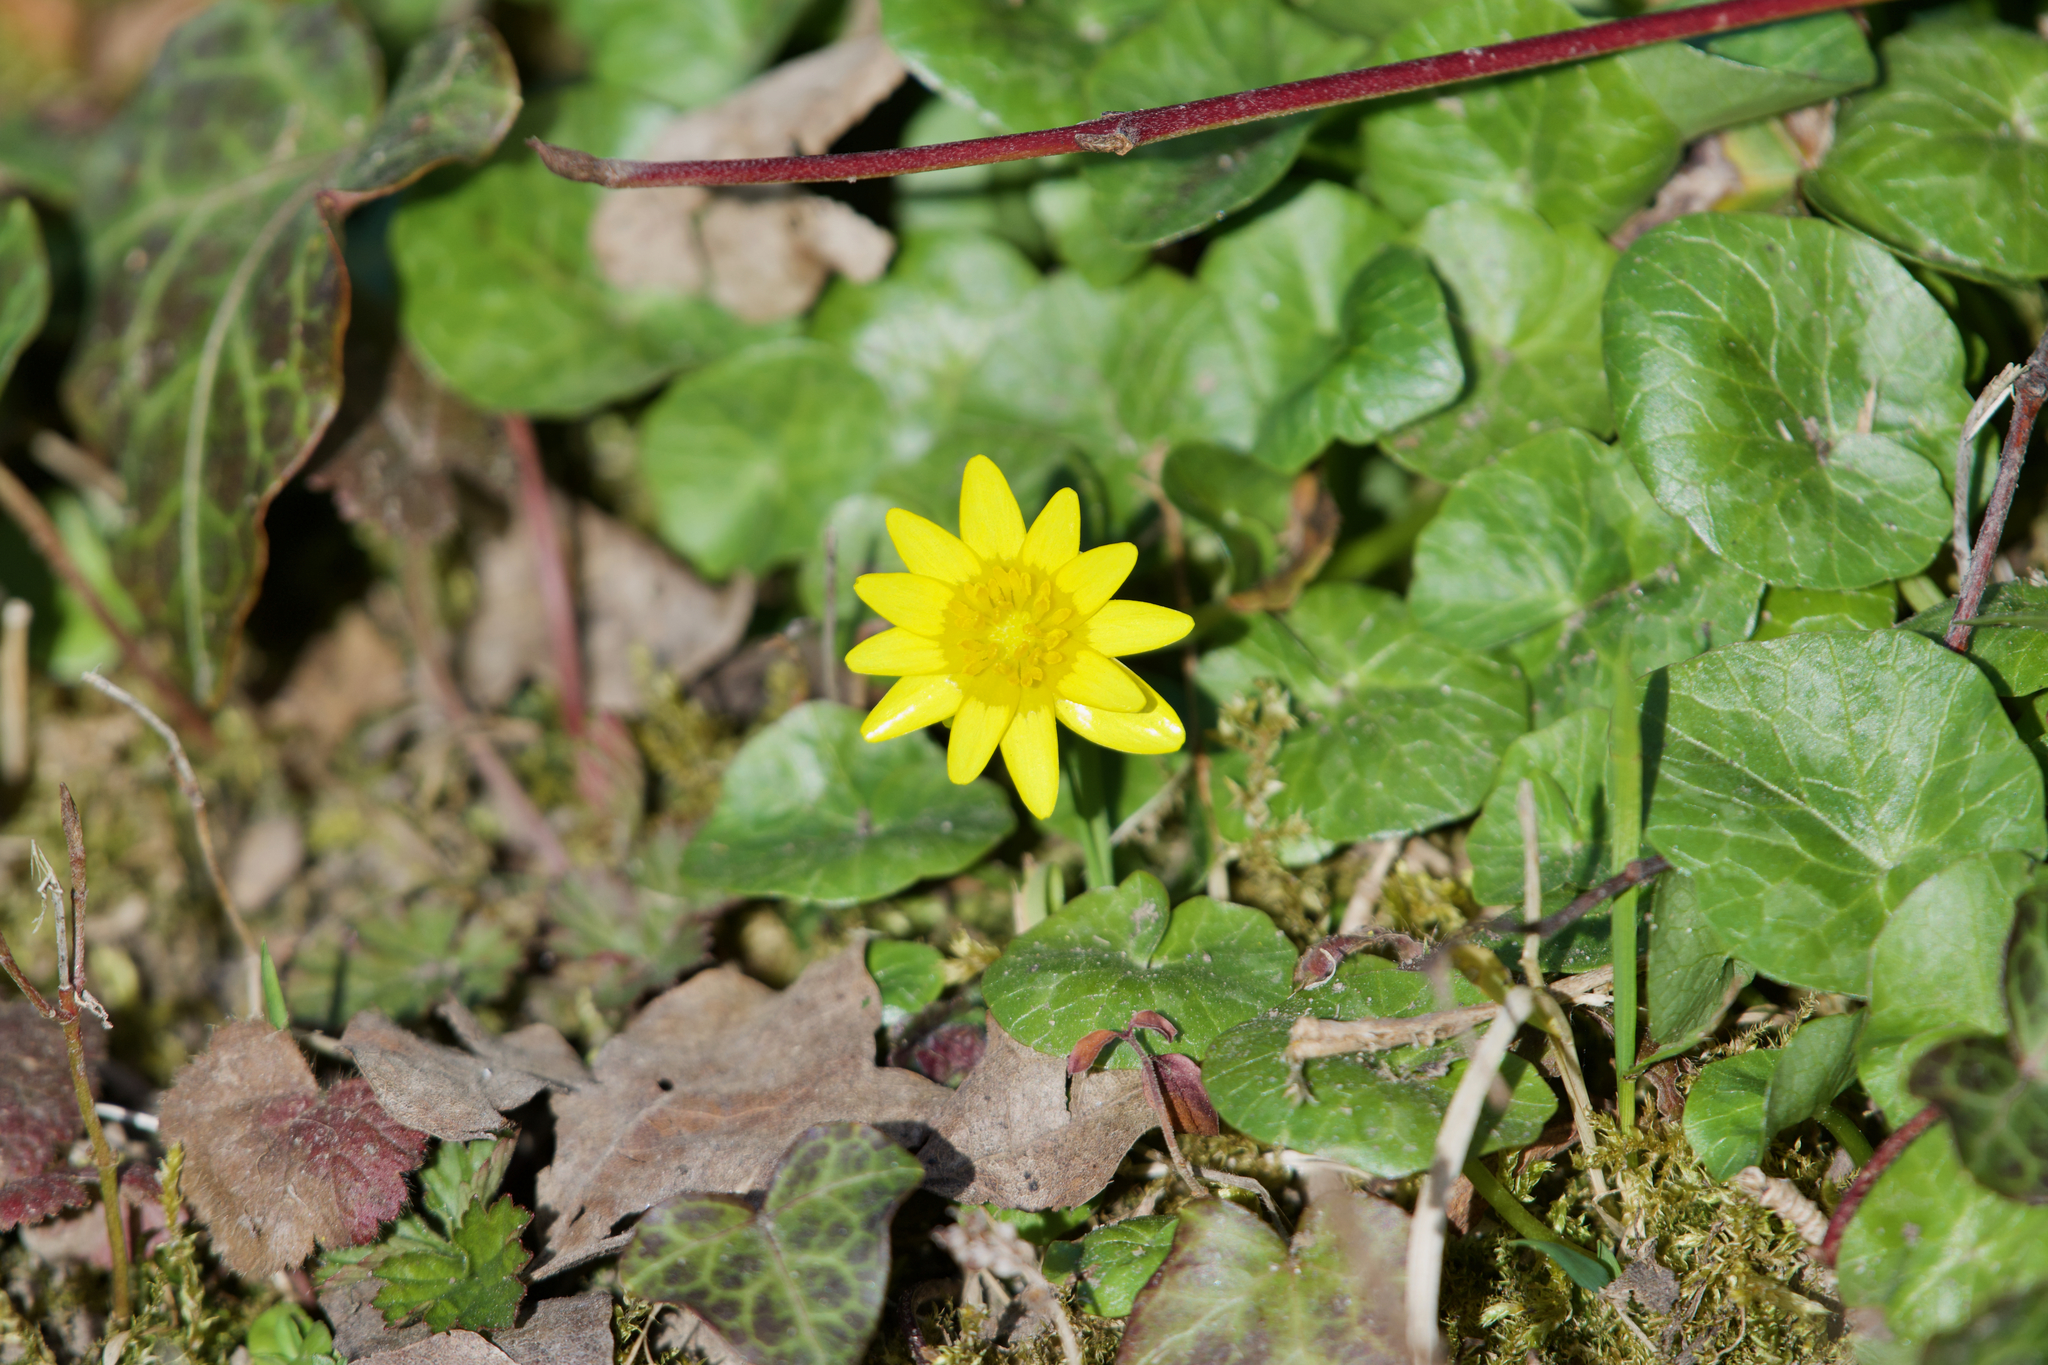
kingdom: Plantae
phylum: Tracheophyta
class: Magnoliopsida
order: Ranunculales
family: Ranunculaceae
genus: Ficaria
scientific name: Ficaria verna
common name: Lesser celandine
